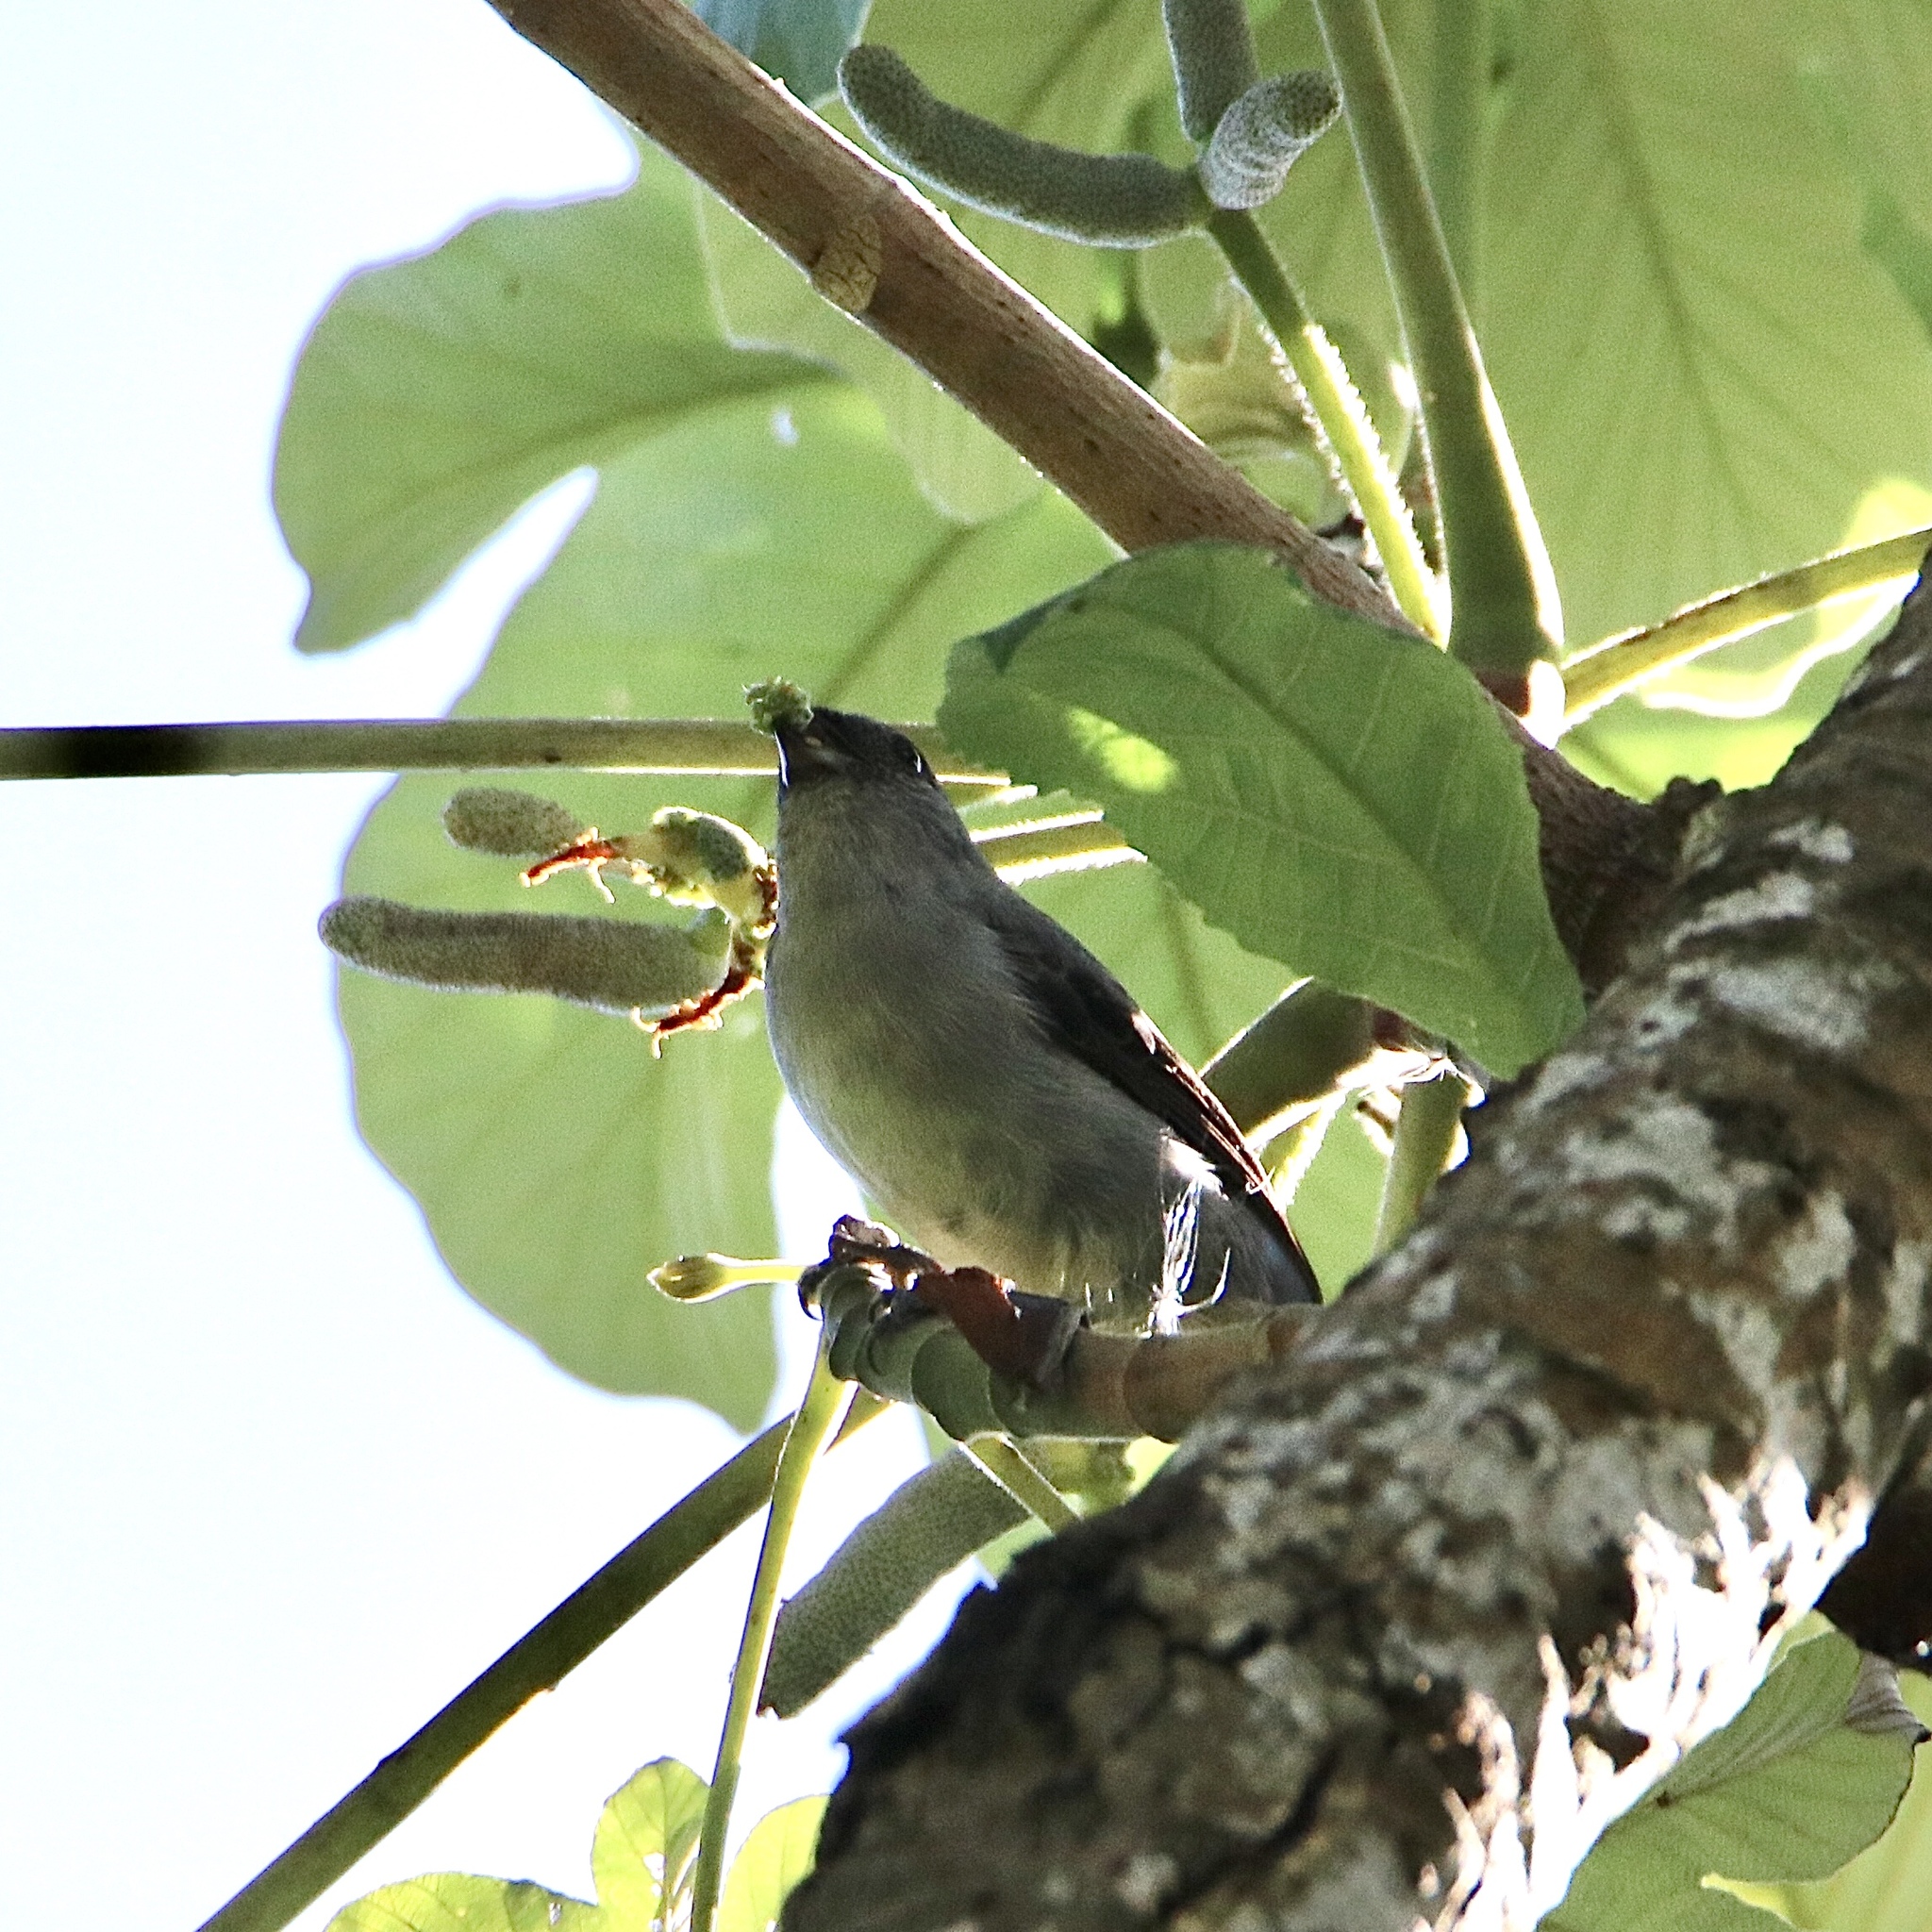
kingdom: Animalia
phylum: Chordata
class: Aves
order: Passeriformes
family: Thraupidae
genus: Tangara
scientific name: Tangara inornata
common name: Plain-colored tanager
